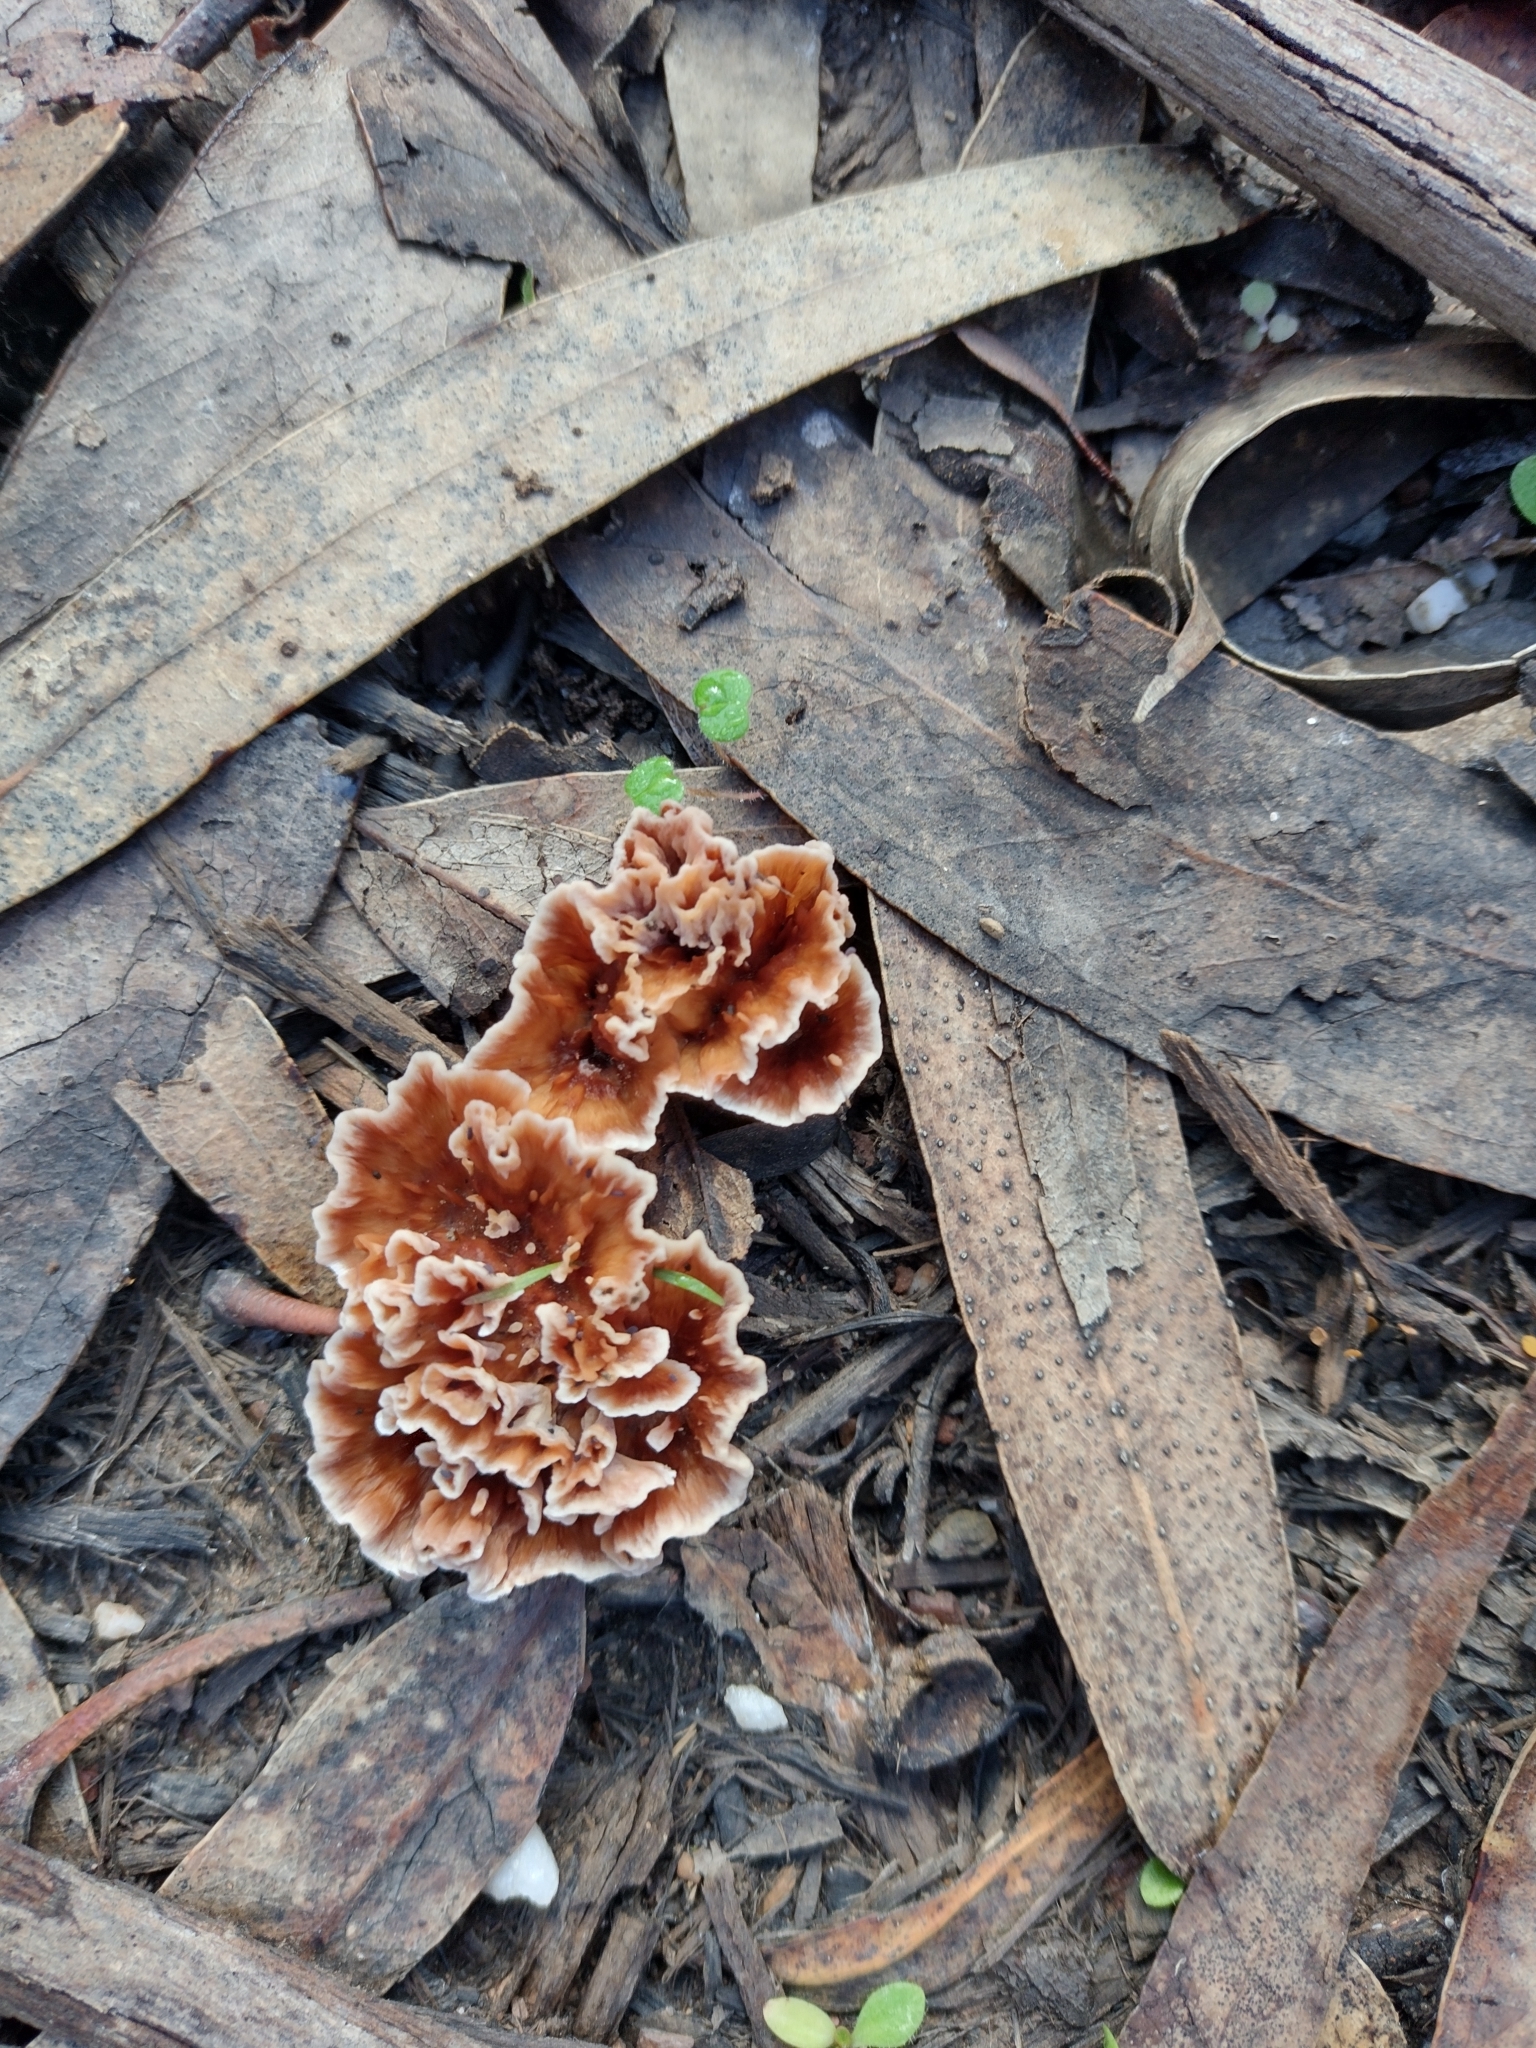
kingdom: Fungi
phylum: Basidiomycota
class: Agaricomycetes
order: Polyporales
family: Podoscyphaceae
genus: Podoscypha
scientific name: Podoscypha petalodes
